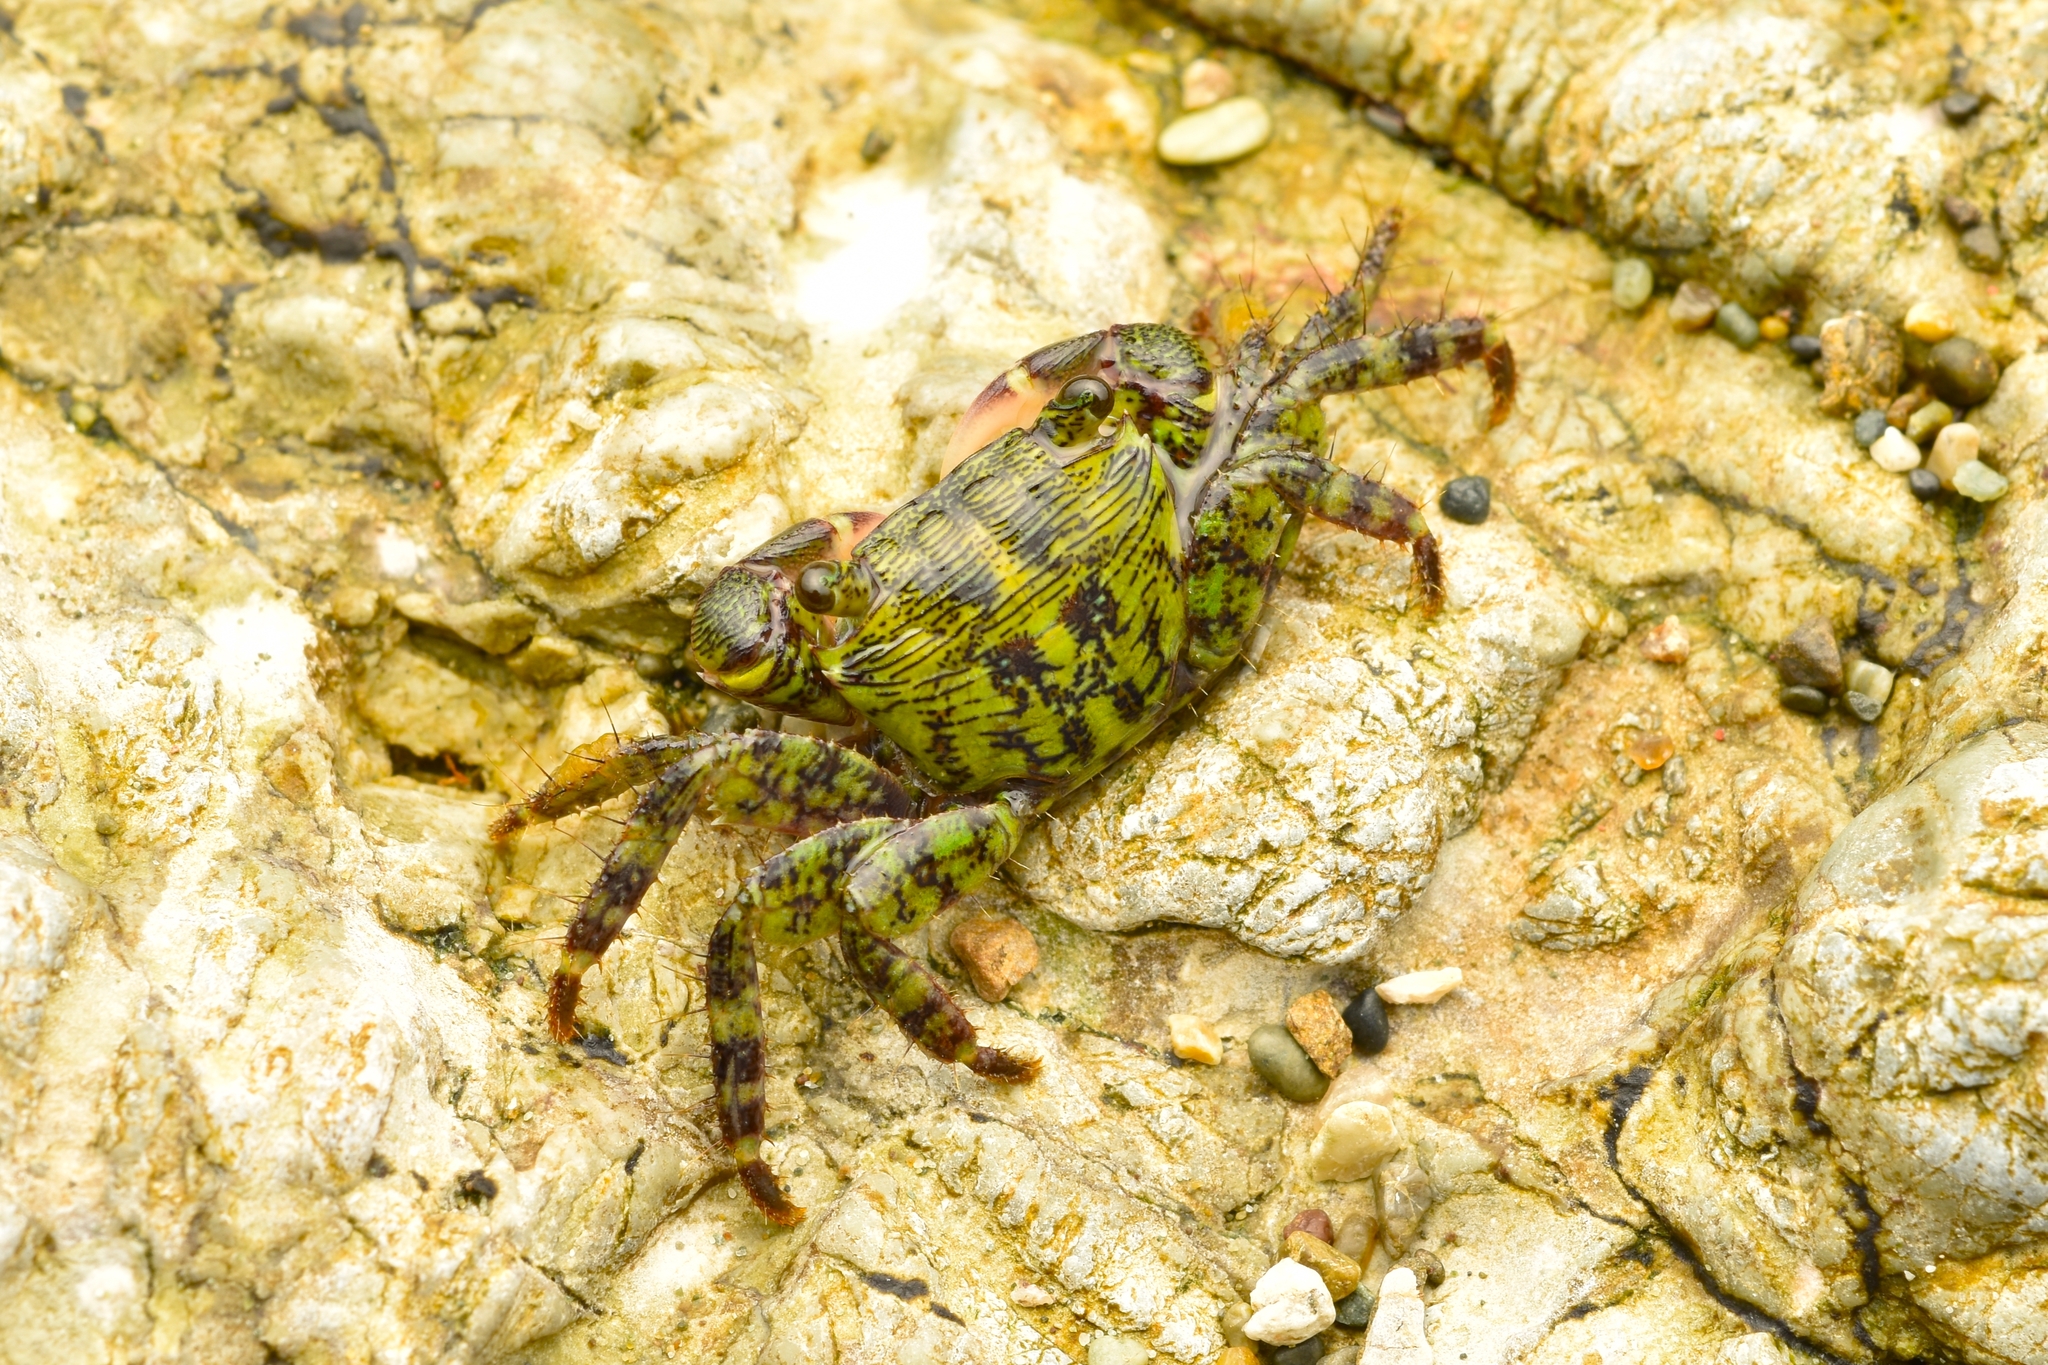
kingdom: Animalia
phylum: Arthropoda
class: Malacostraca
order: Decapoda
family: Grapsidae
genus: Pachygrapsus
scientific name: Pachygrapsus socius
